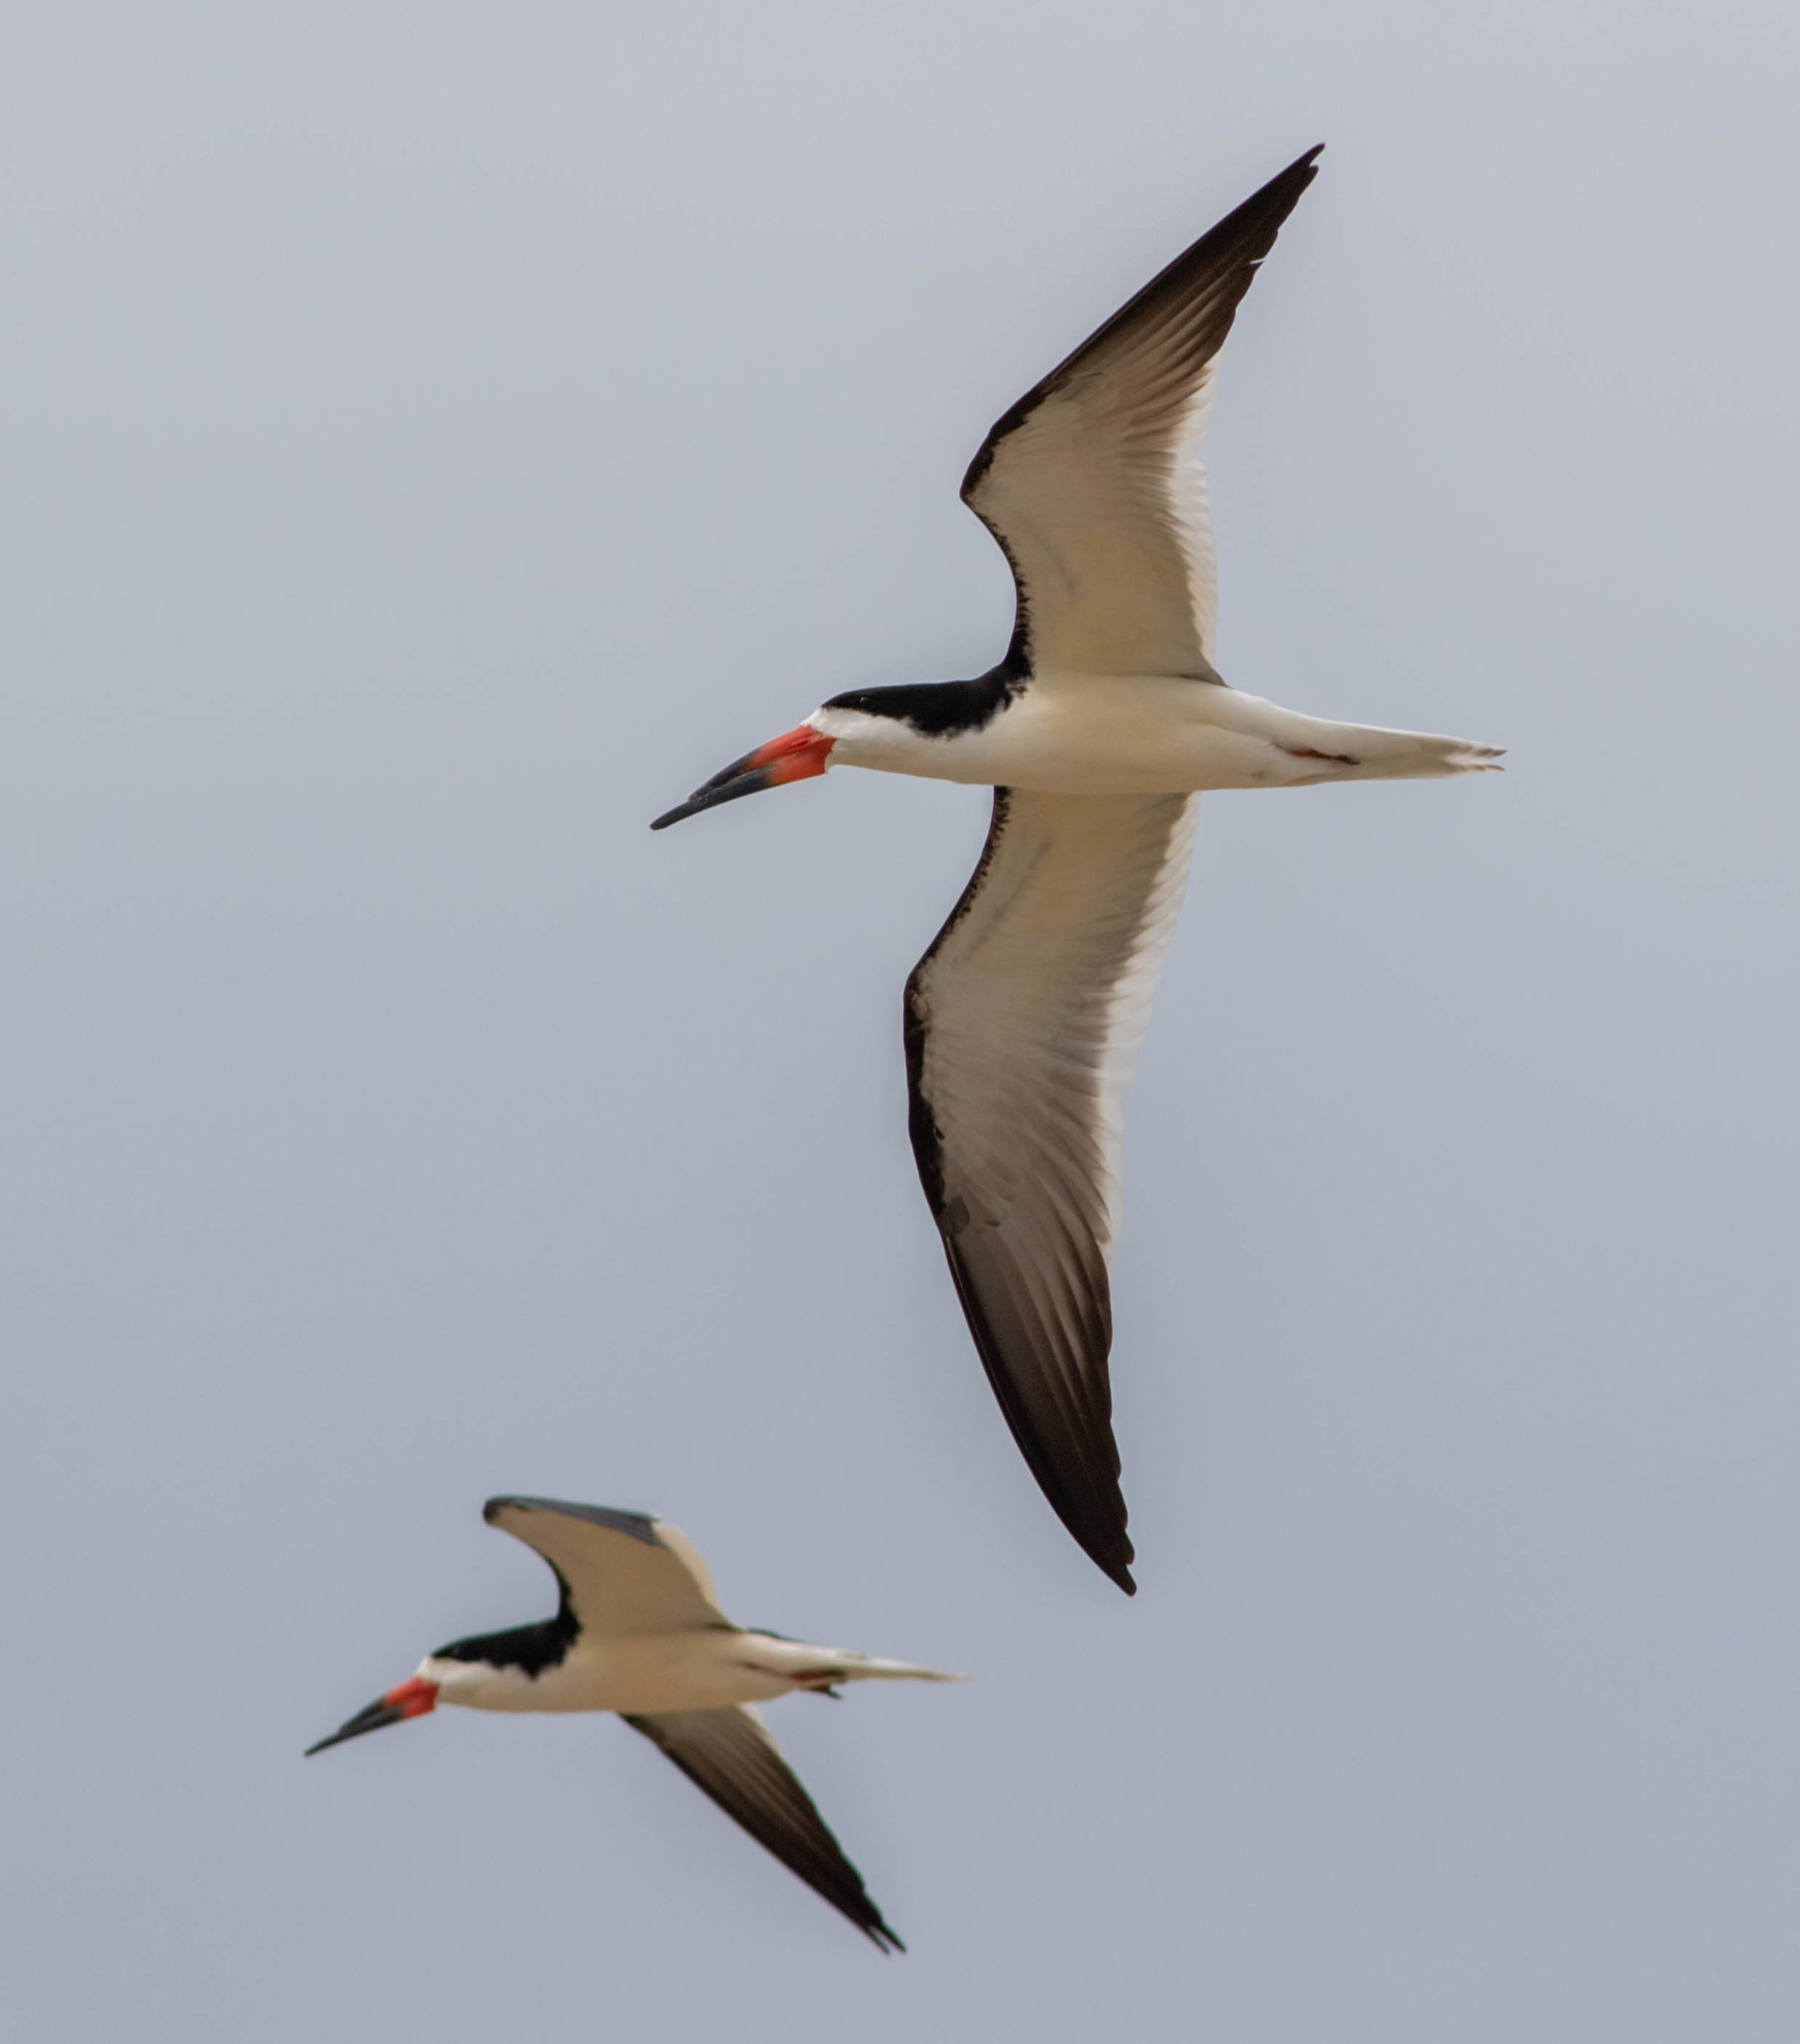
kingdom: Animalia
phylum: Chordata
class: Aves
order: Charadriiformes
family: Laridae
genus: Rynchops
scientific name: Rynchops niger
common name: Black skimmer
